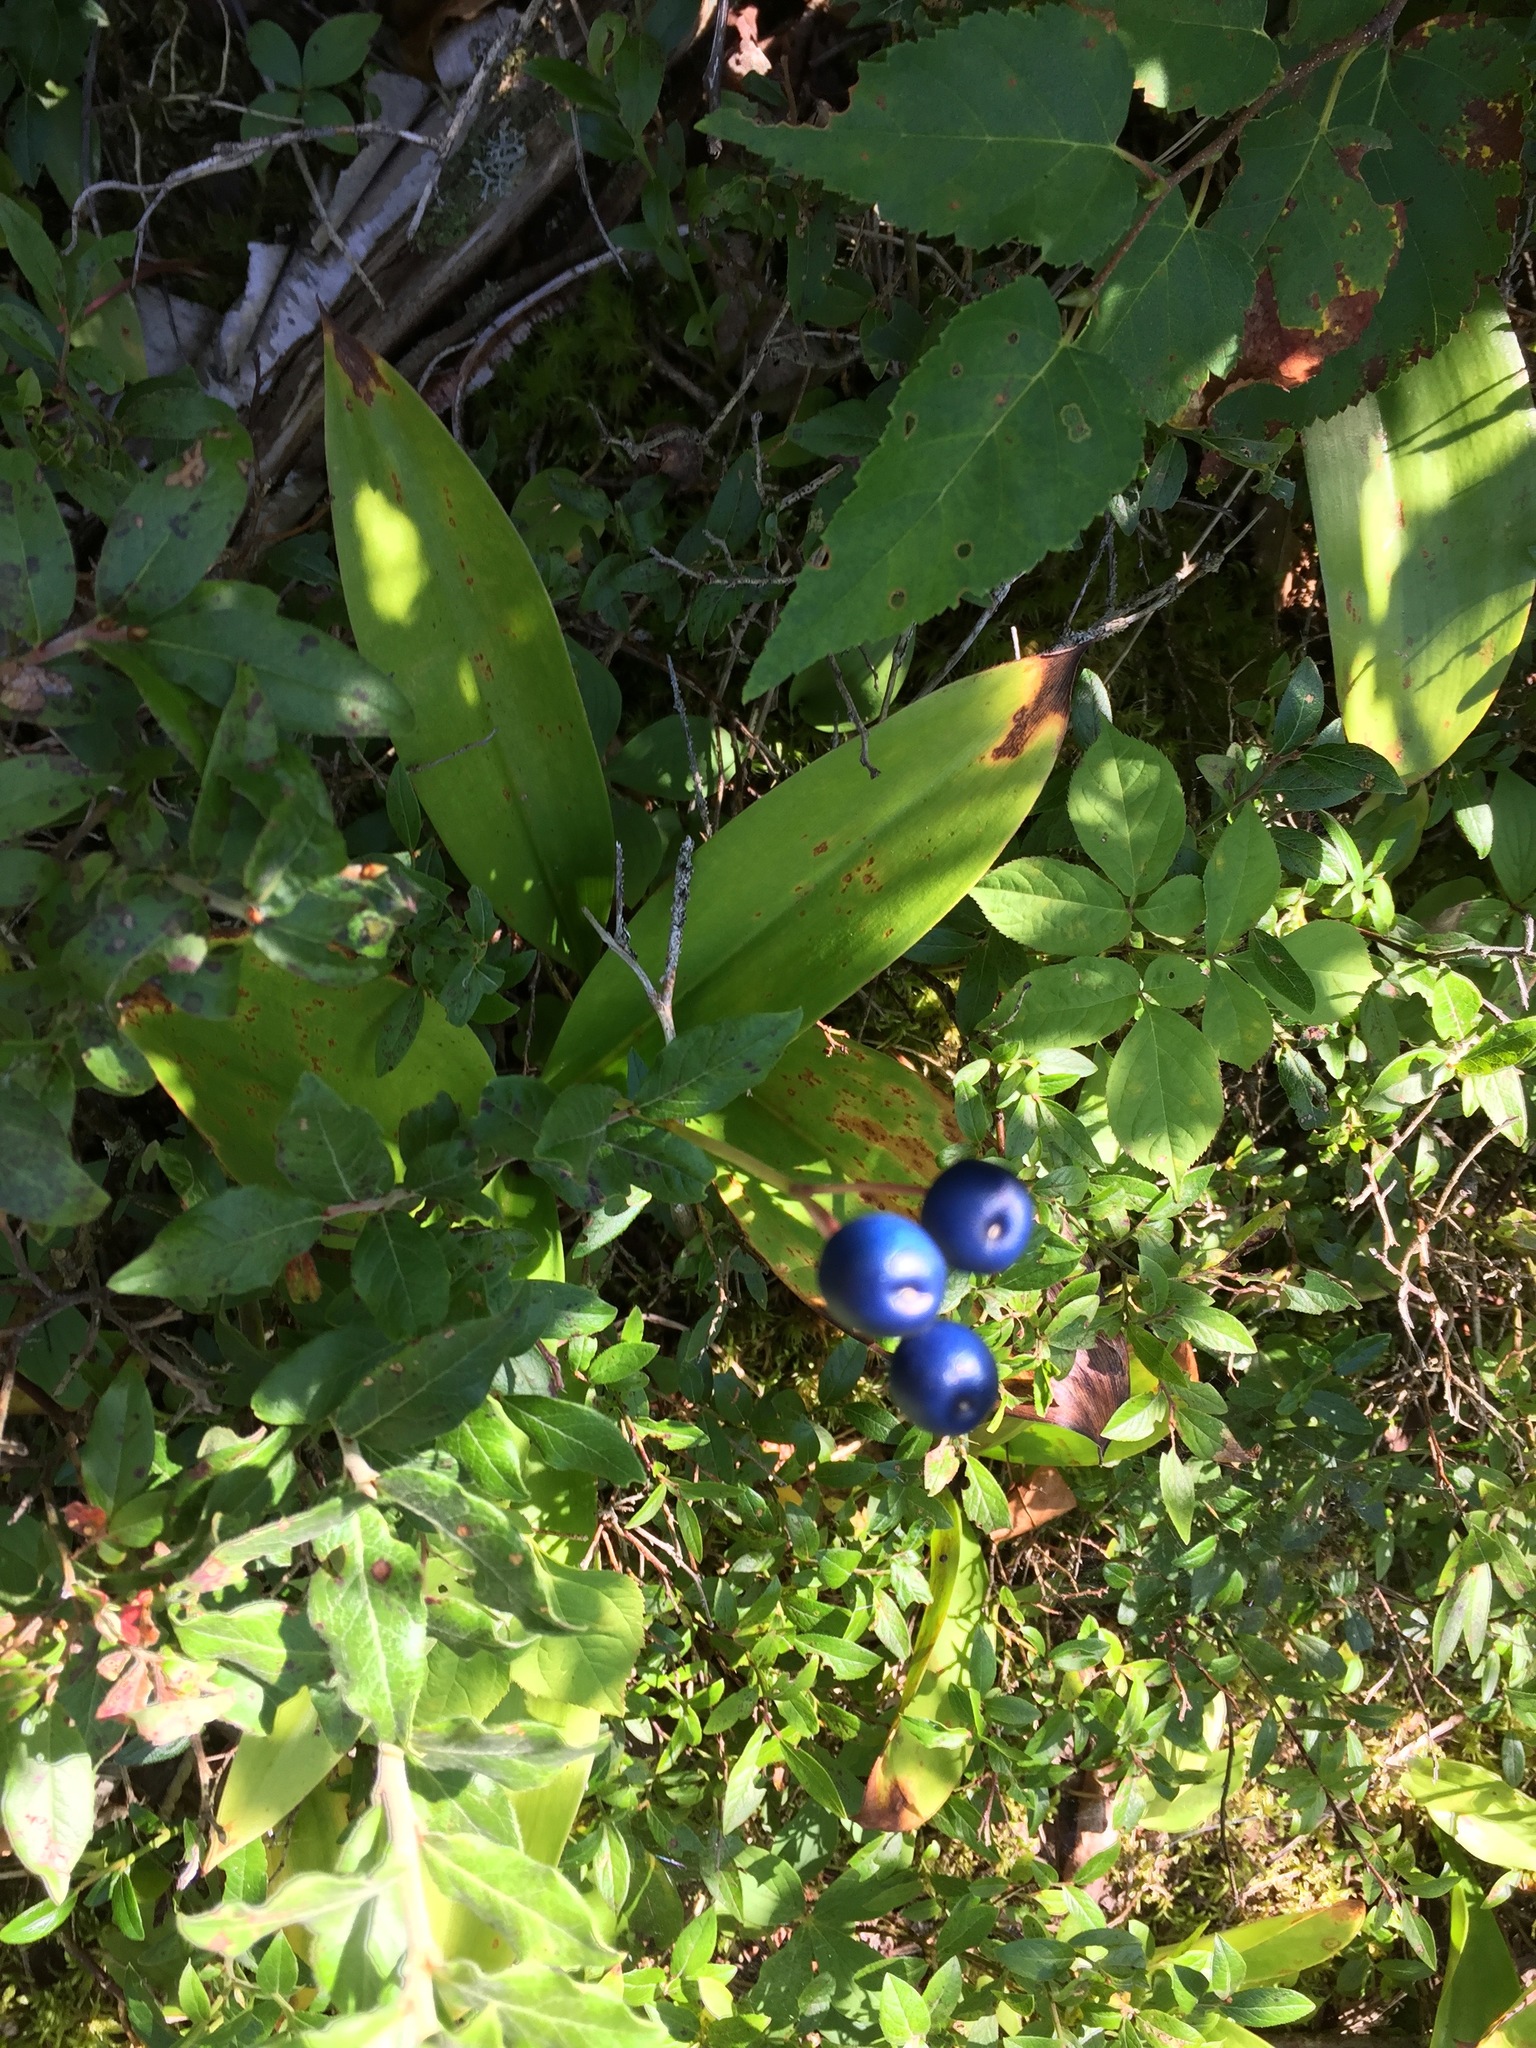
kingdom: Plantae
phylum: Tracheophyta
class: Liliopsida
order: Liliales
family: Liliaceae
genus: Clintonia
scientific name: Clintonia borealis
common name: Yellow clintonia
